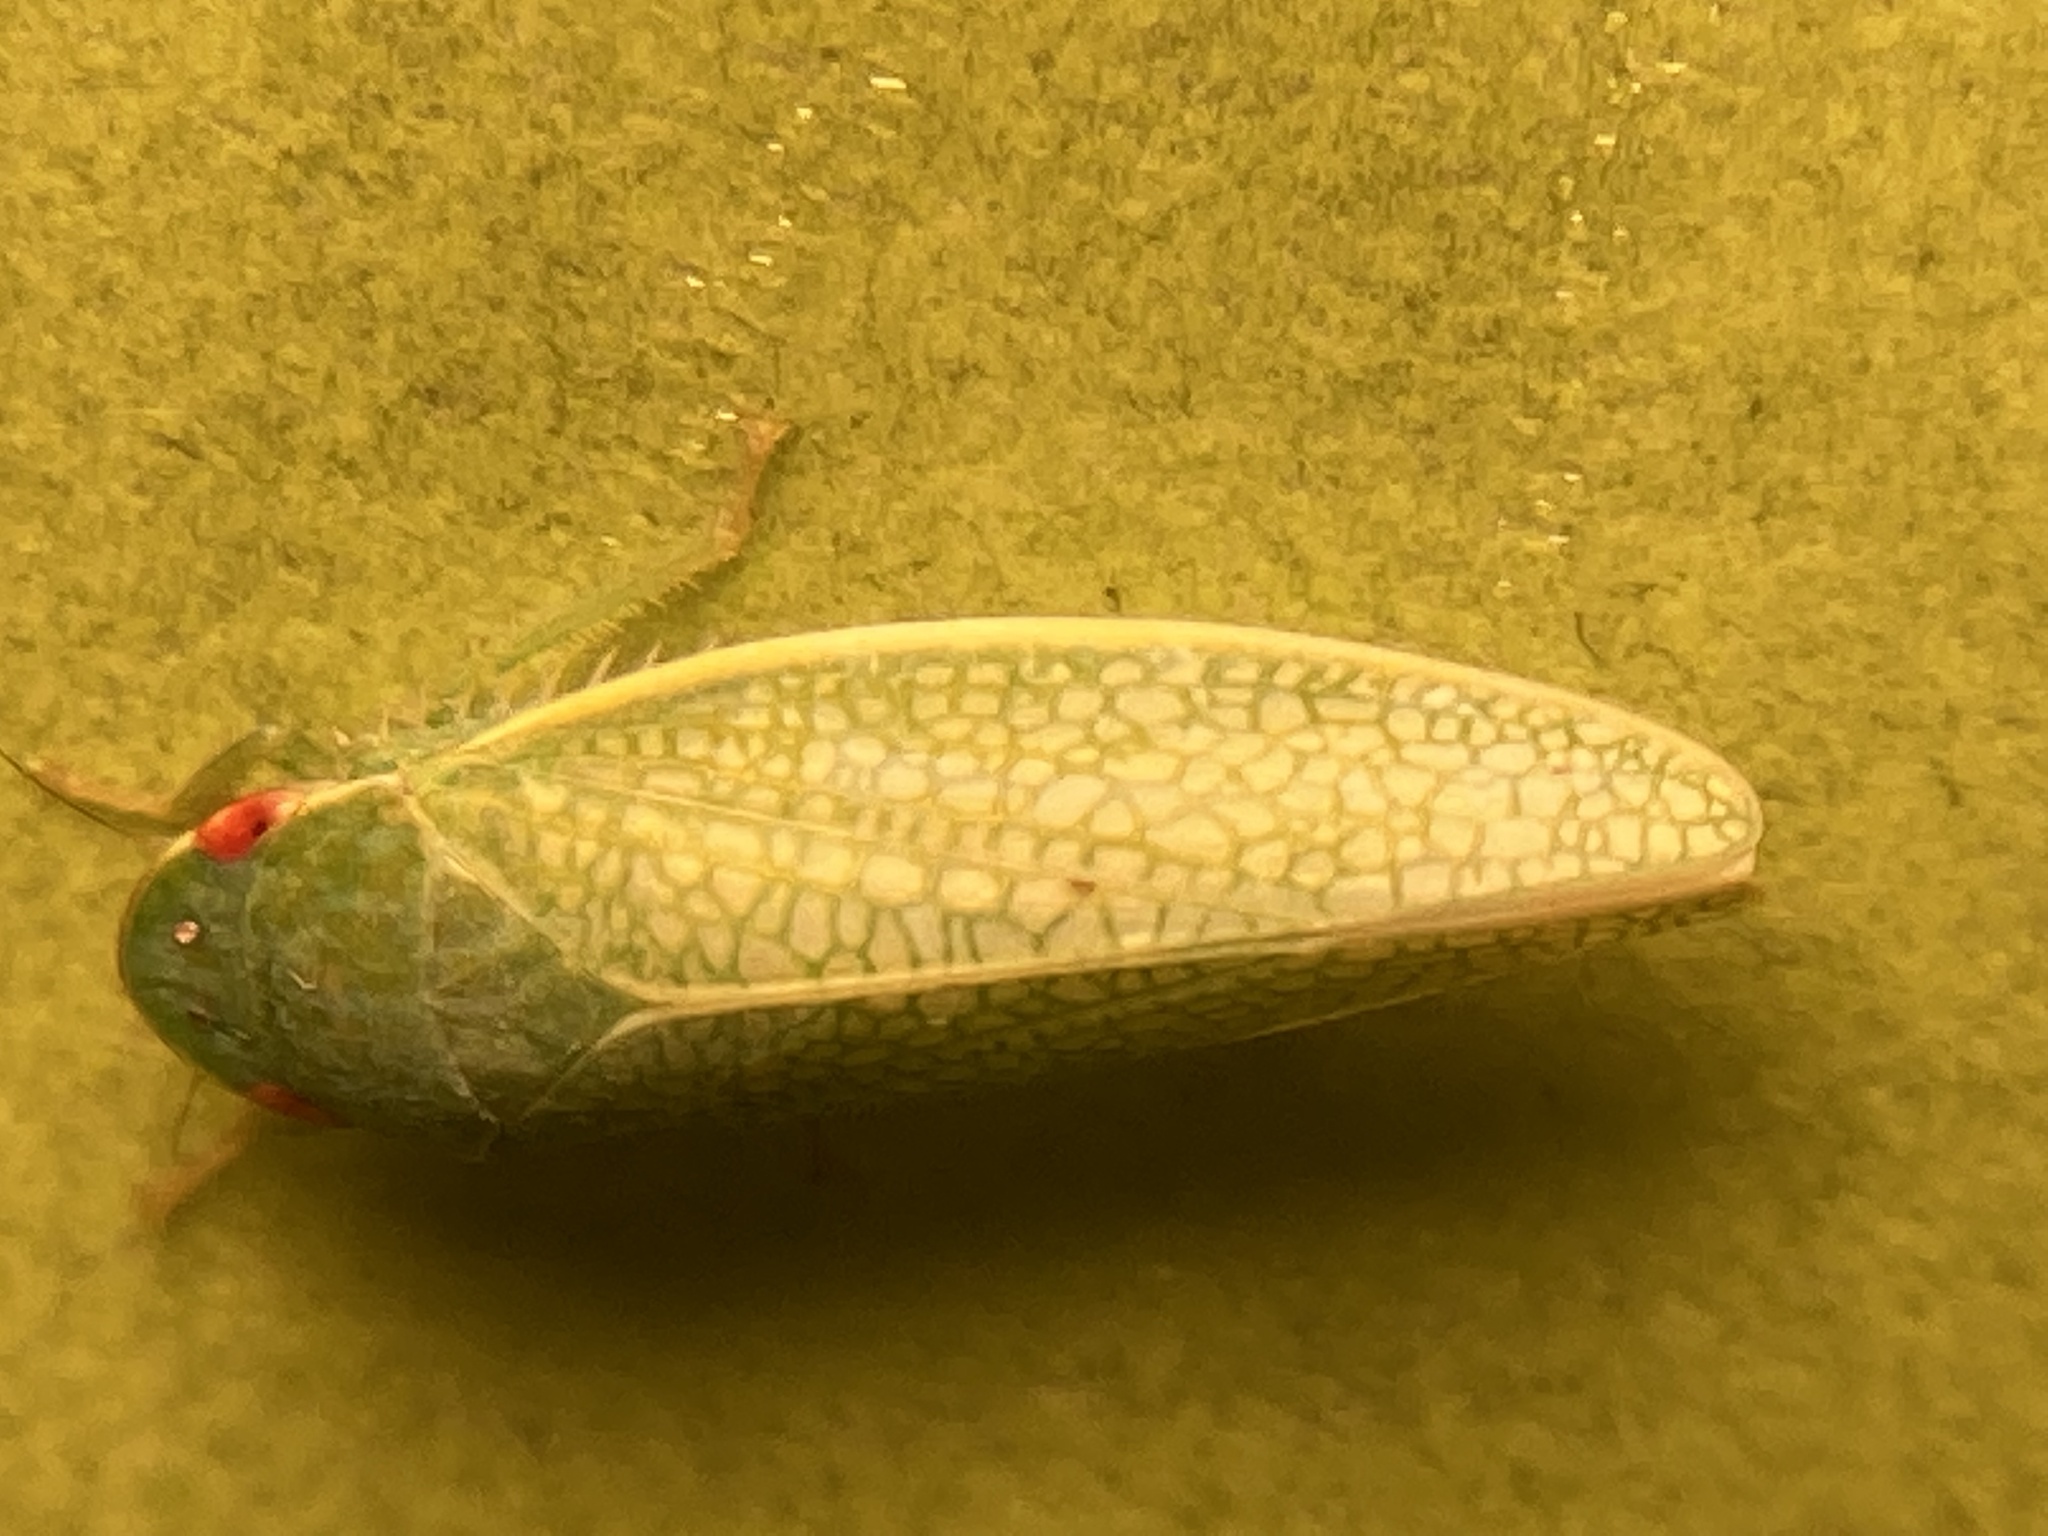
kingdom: Animalia
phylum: Arthropoda
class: Insecta
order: Hemiptera
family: Cicadellidae
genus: Gyponana
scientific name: Gyponana procera
